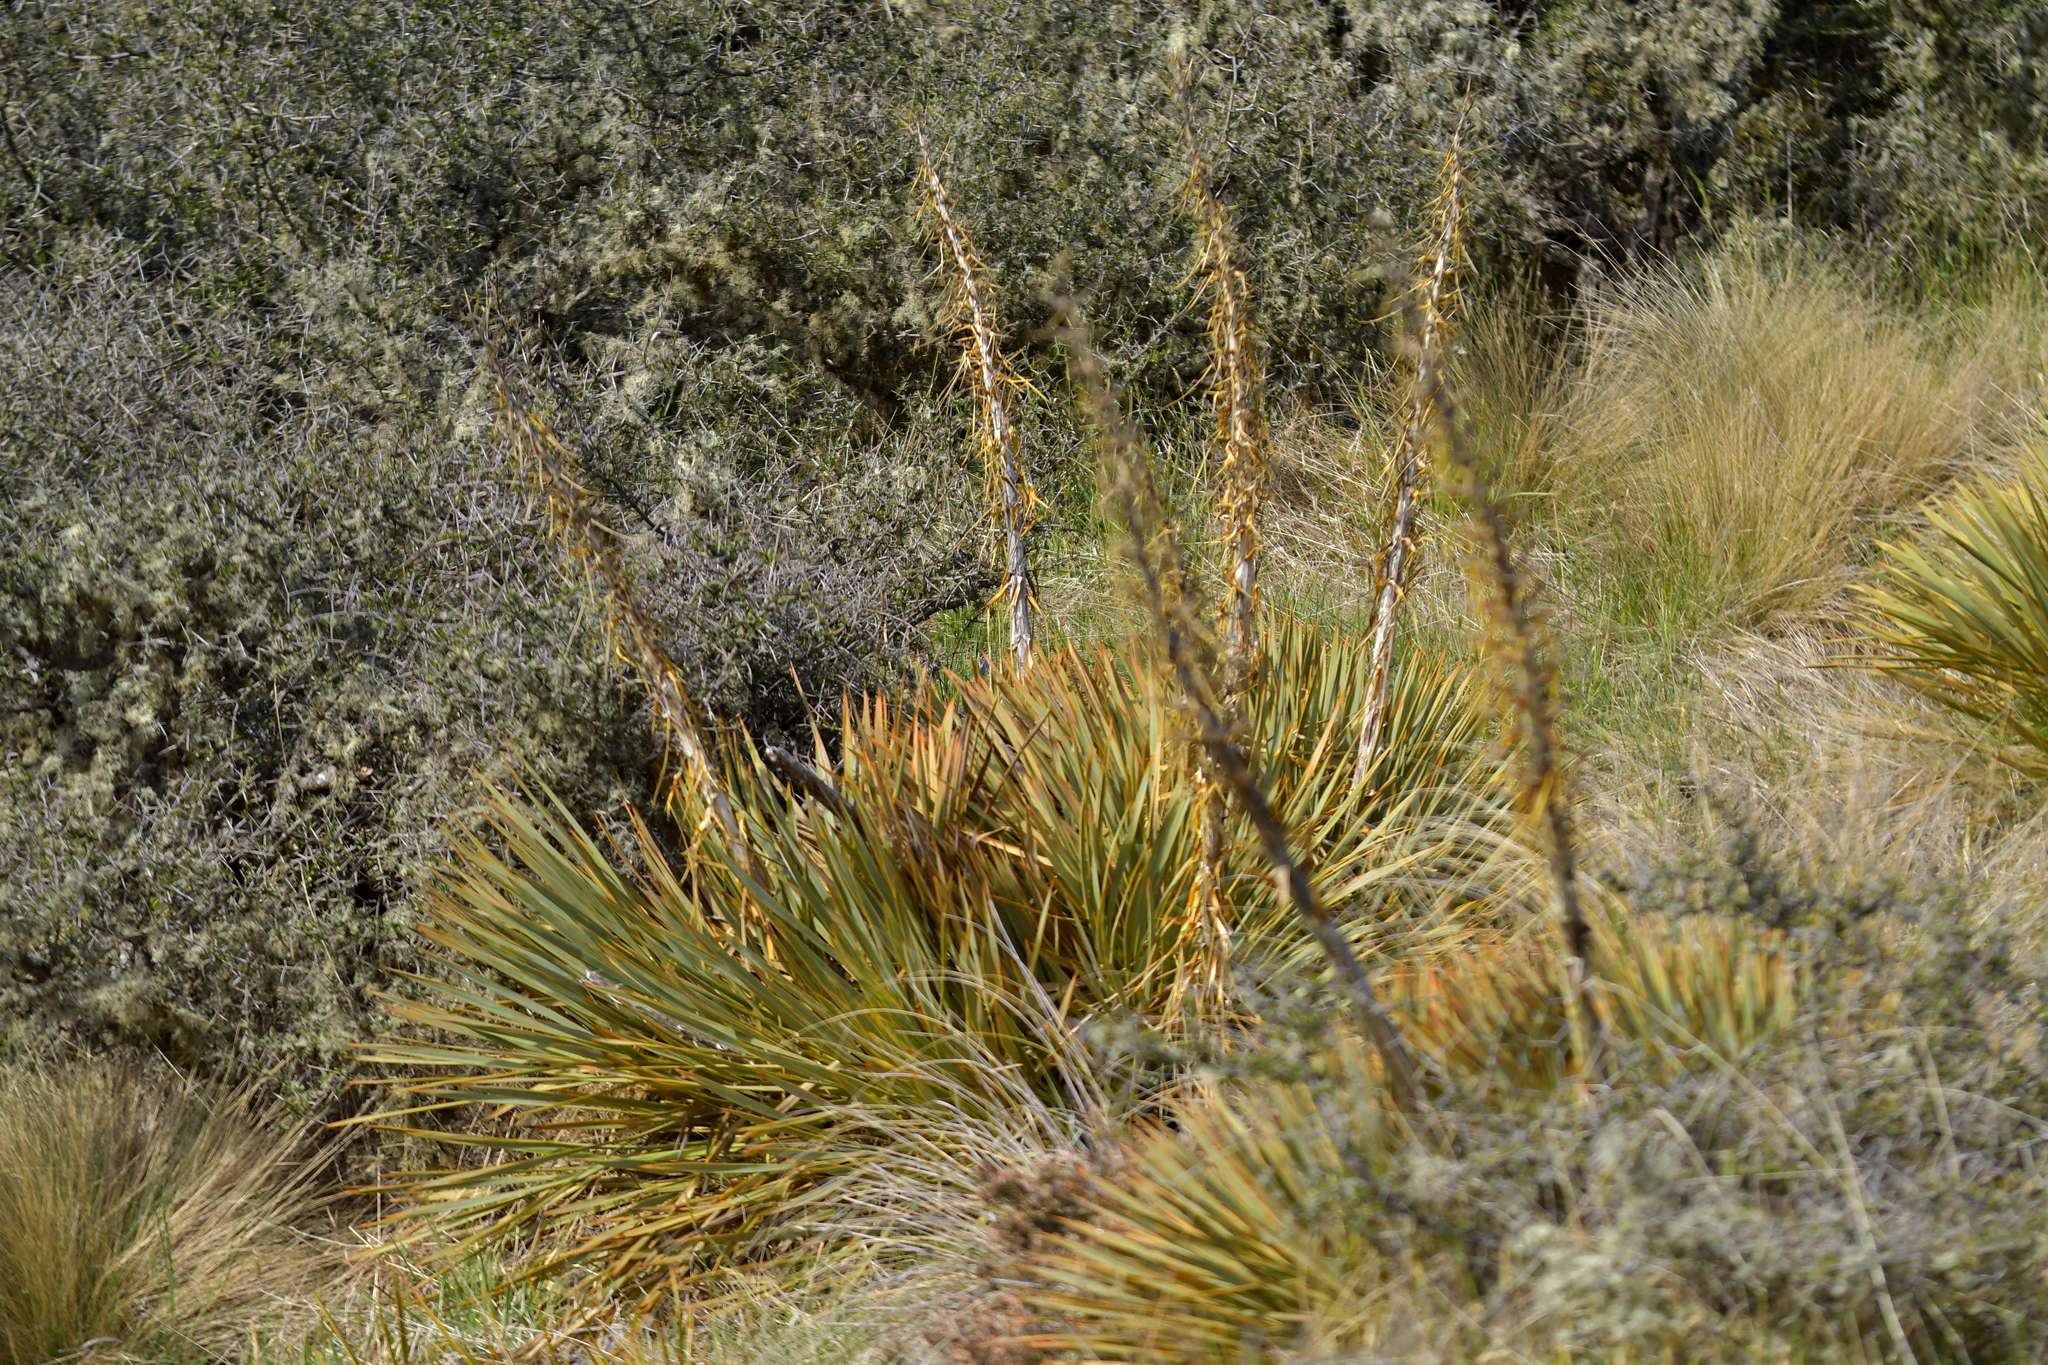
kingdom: Plantae
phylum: Tracheophyta
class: Magnoliopsida
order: Apiales
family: Apiaceae
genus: Aciphylla
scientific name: Aciphylla aurea
